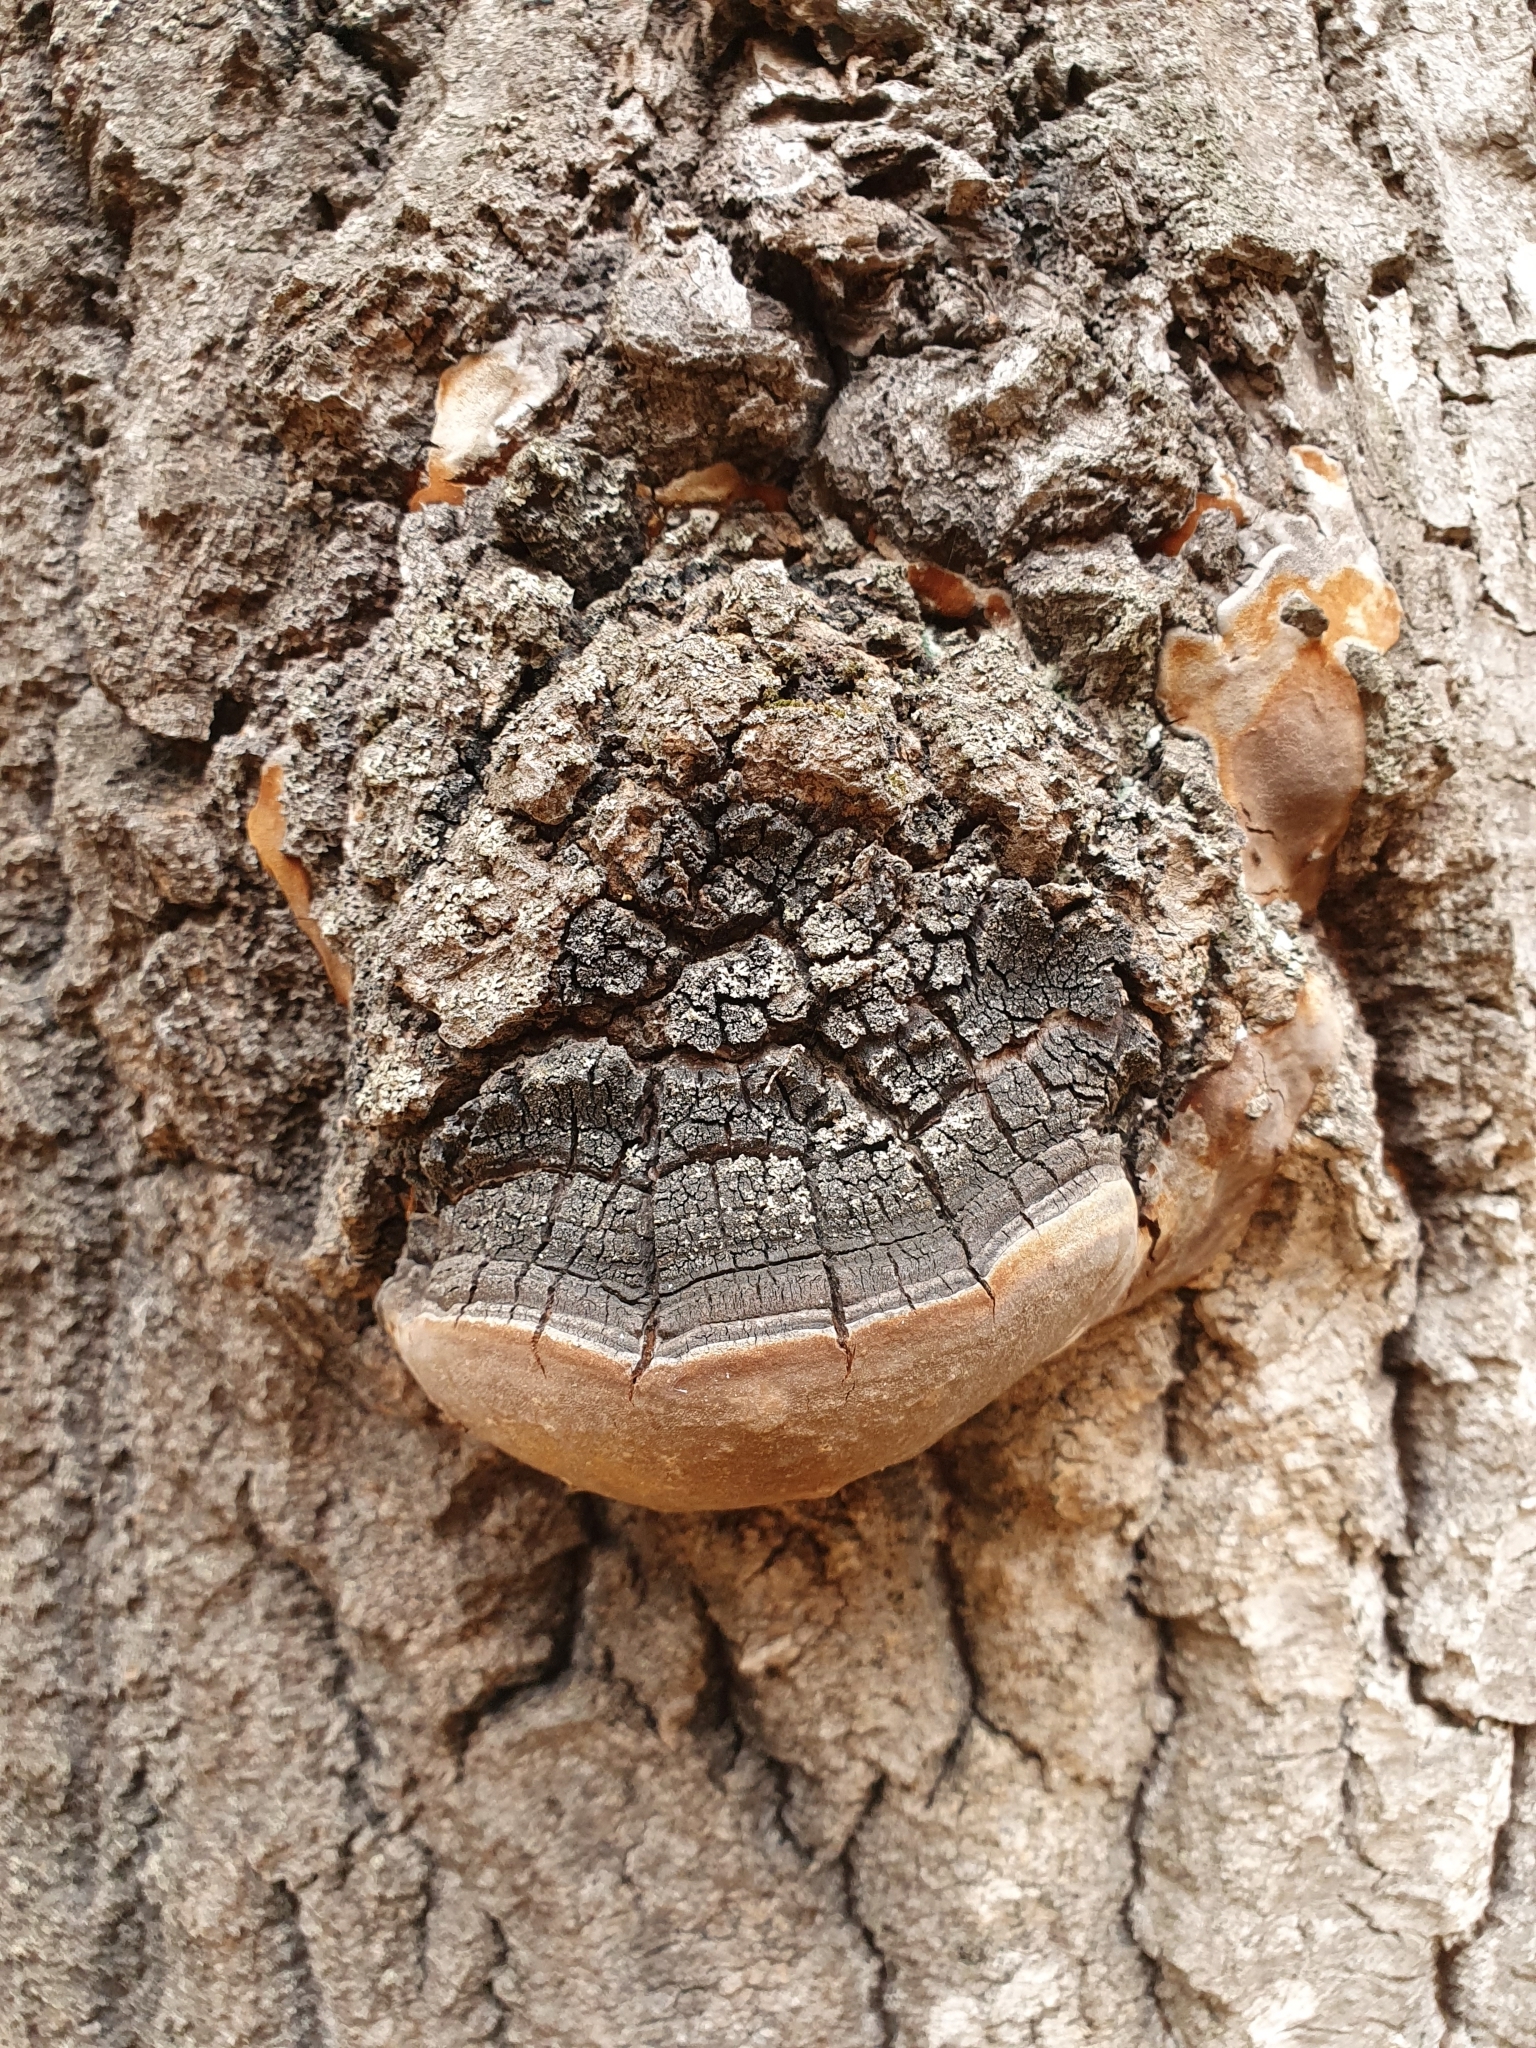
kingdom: Fungi
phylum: Basidiomycota
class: Agaricomycetes
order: Hymenochaetales
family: Hymenochaetaceae
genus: Phellinus
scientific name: Phellinus tremulae
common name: Aspen bracket
